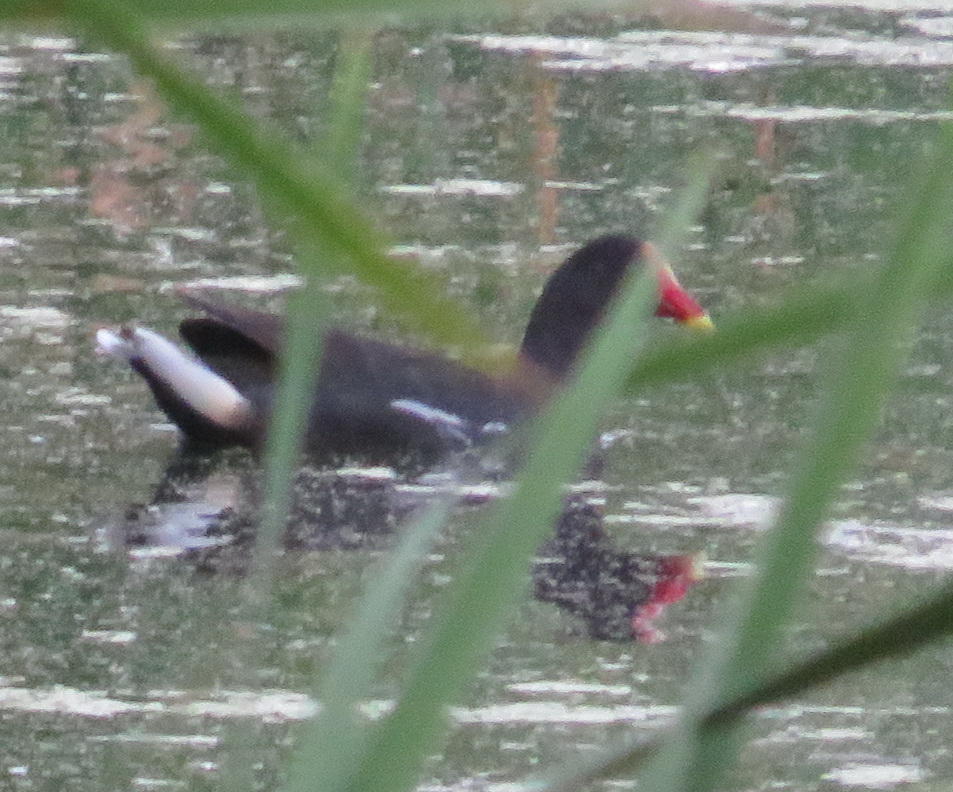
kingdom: Animalia
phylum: Chordata
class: Aves
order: Gruiformes
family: Rallidae
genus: Gallinula
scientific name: Gallinula chloropus
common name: Common moorhen
